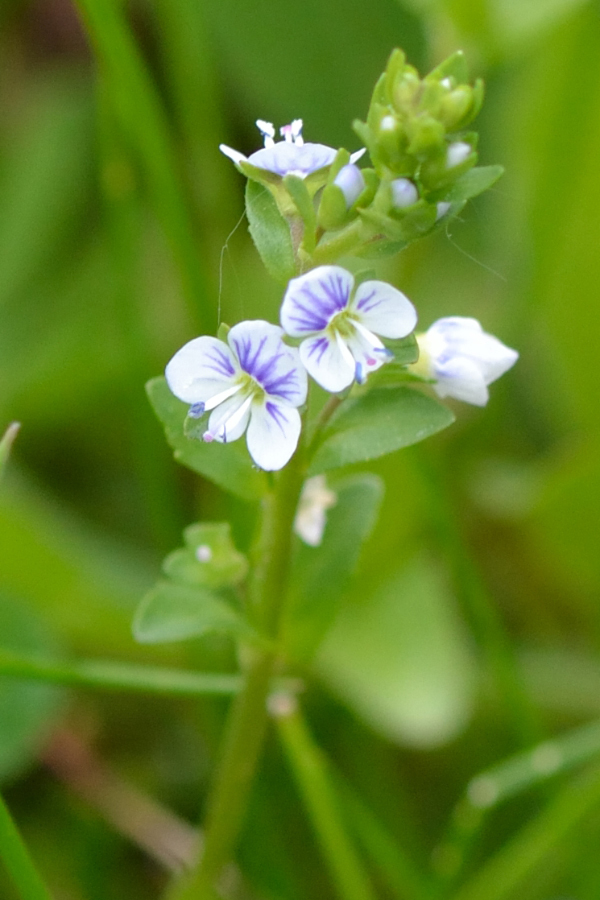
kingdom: Plantae
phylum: Tracheophyta
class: Magnoliopsida
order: Lamiales
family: Plantaginaceae
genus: Veronica
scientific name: Veronica serpyllifolia
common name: Thyme-leaved speedwell
